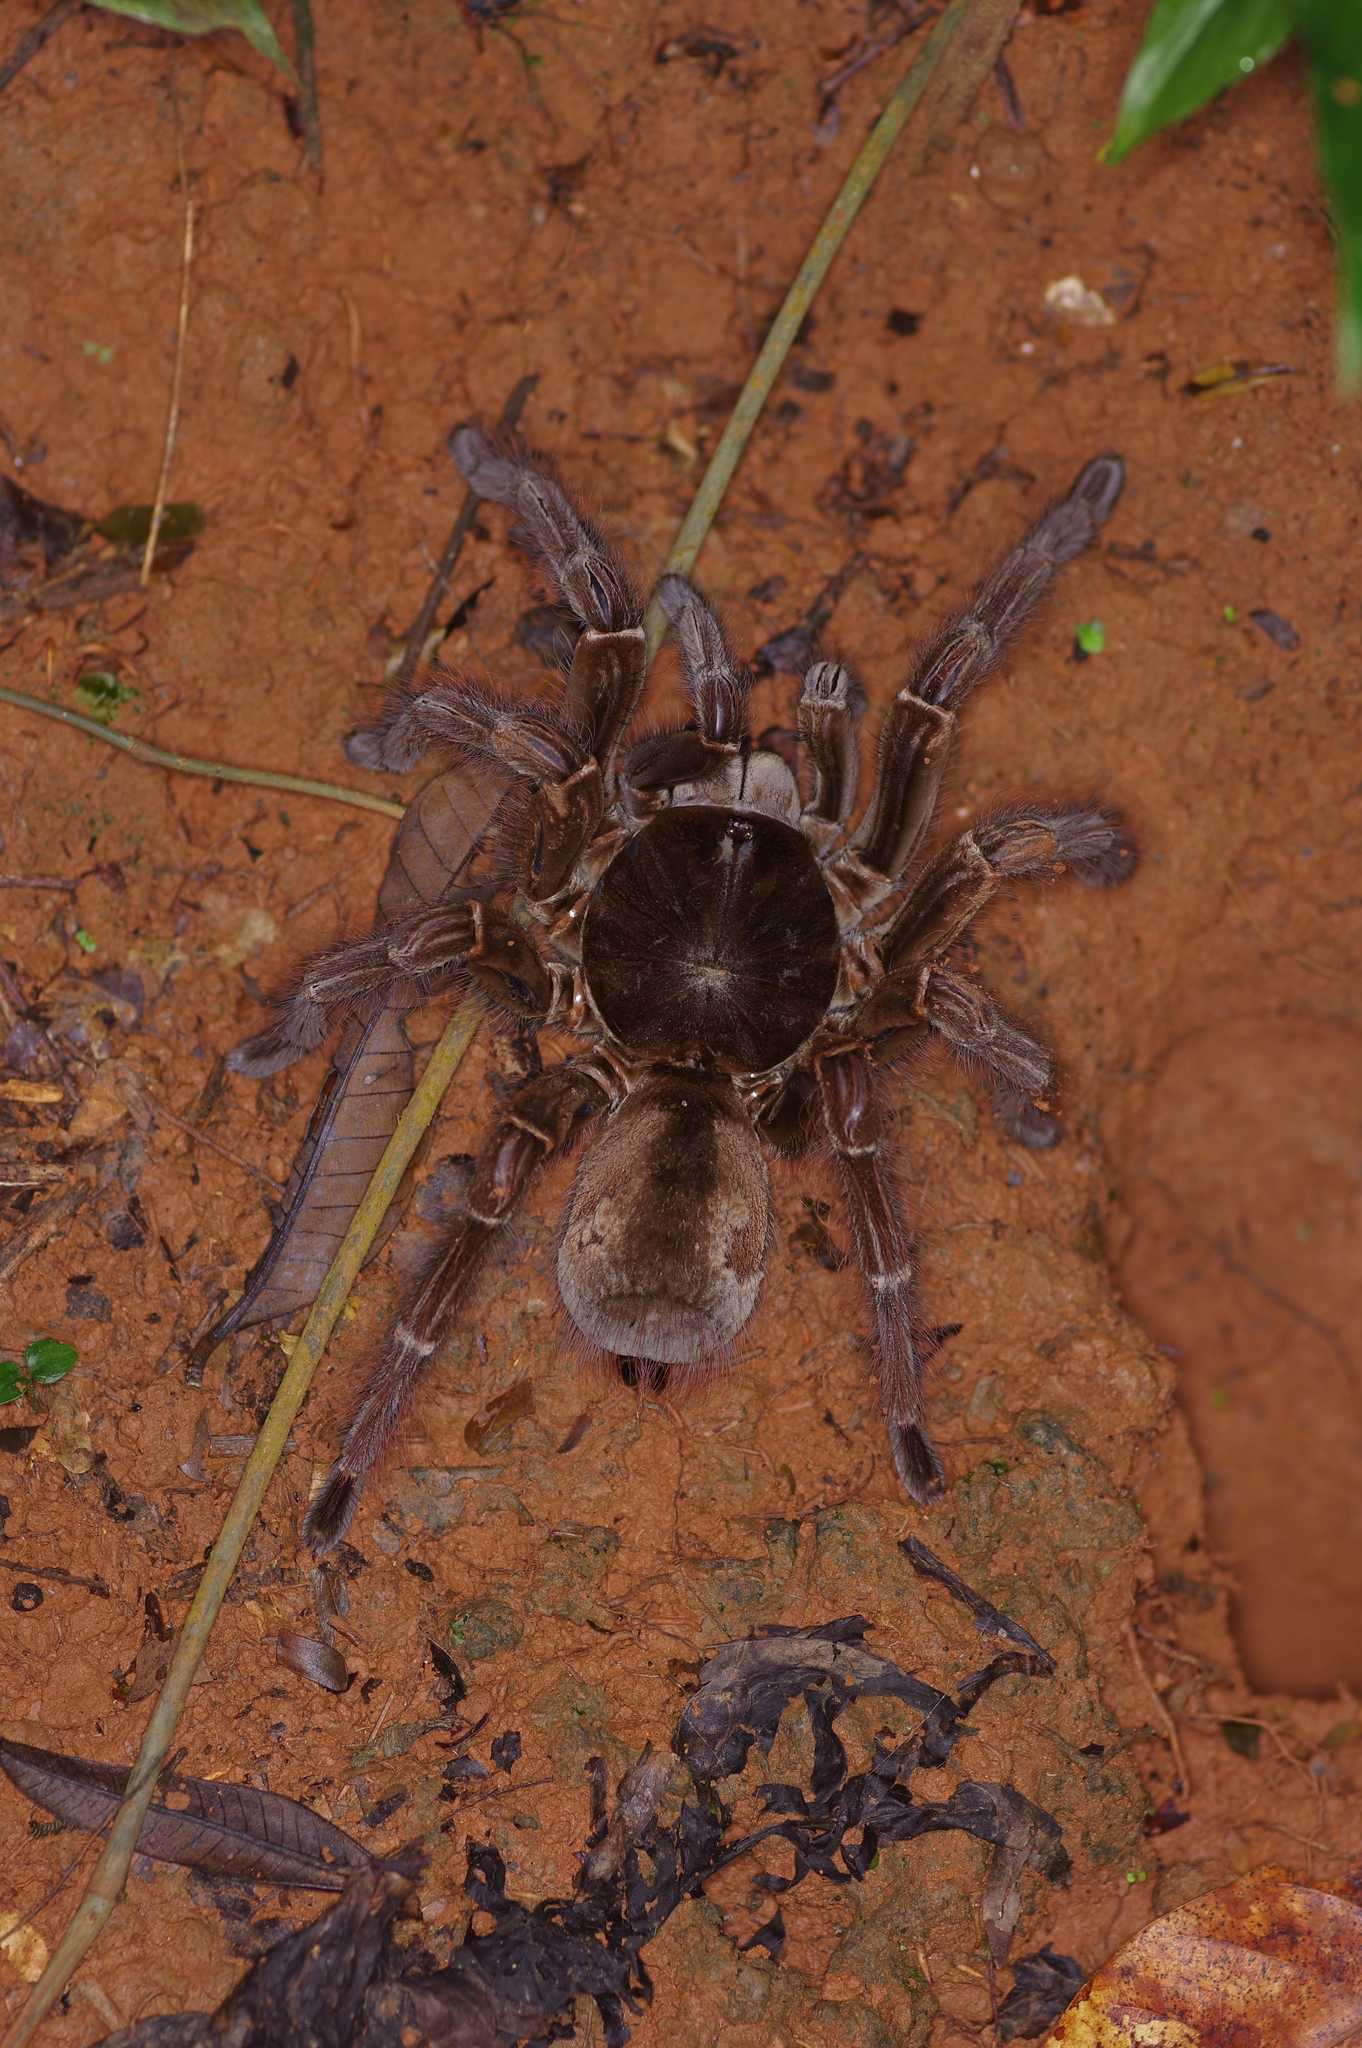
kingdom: Animalia
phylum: Arthropoda
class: Arachnida
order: Araneae
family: Theraphosidae
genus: Theraphosa
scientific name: Theraphosa blondi
